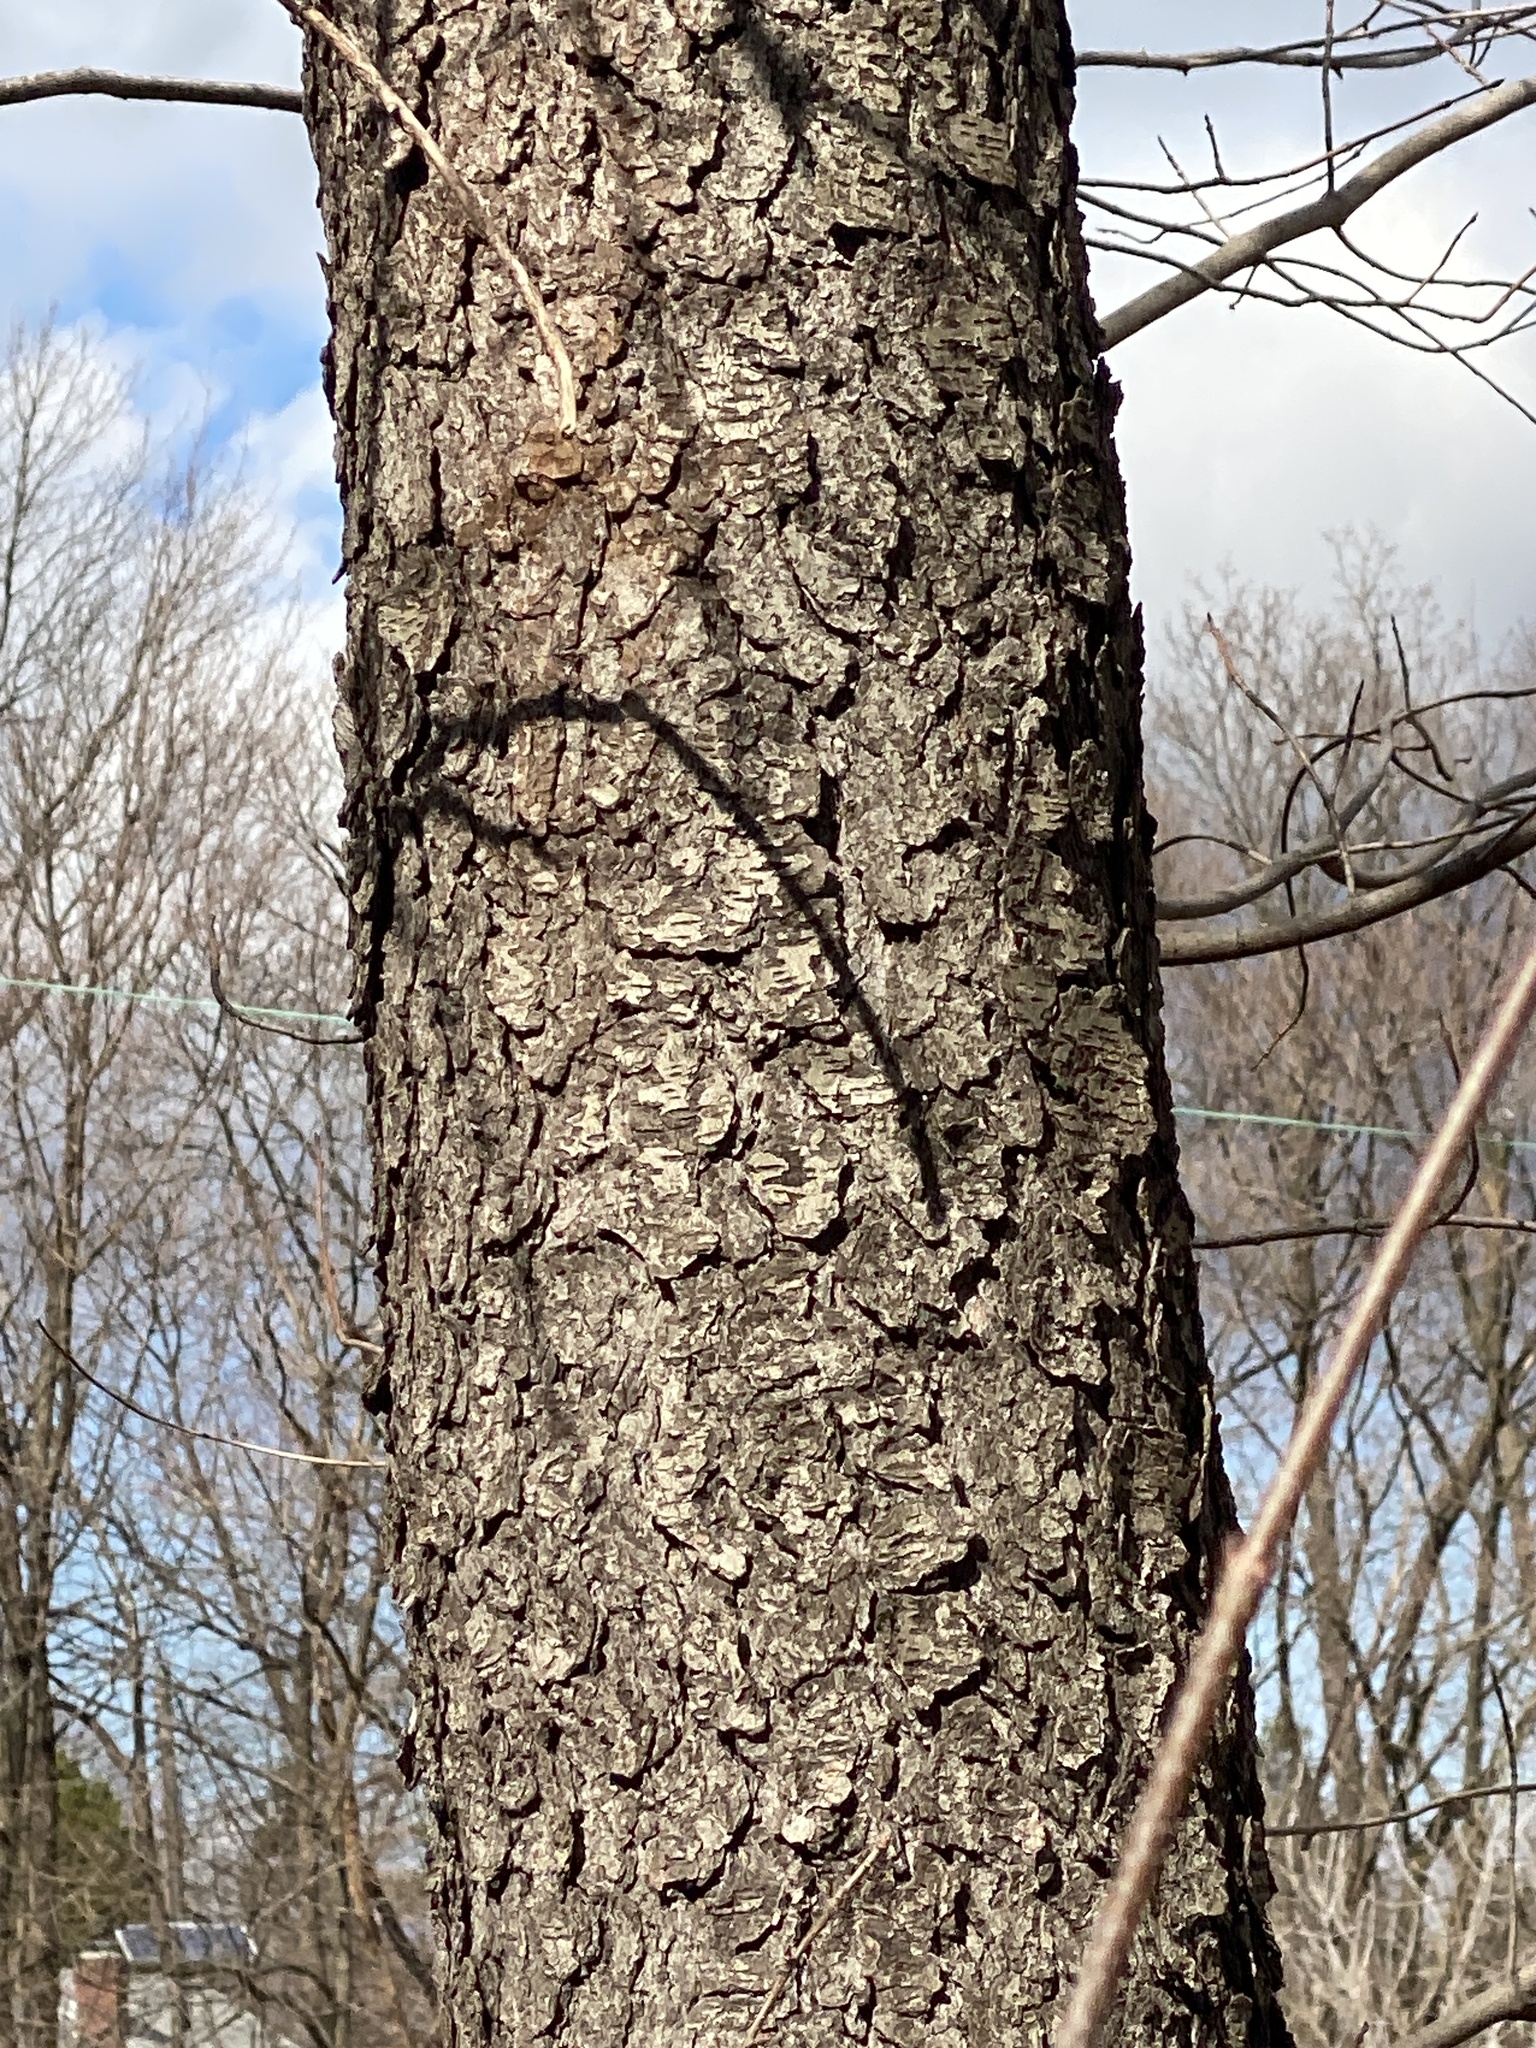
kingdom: Plantae
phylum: Tracheophyta
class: Magnoliopsida
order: Rosales
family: Rosaceae
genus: Prunus
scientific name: Prunus serotina
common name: Black cherry
